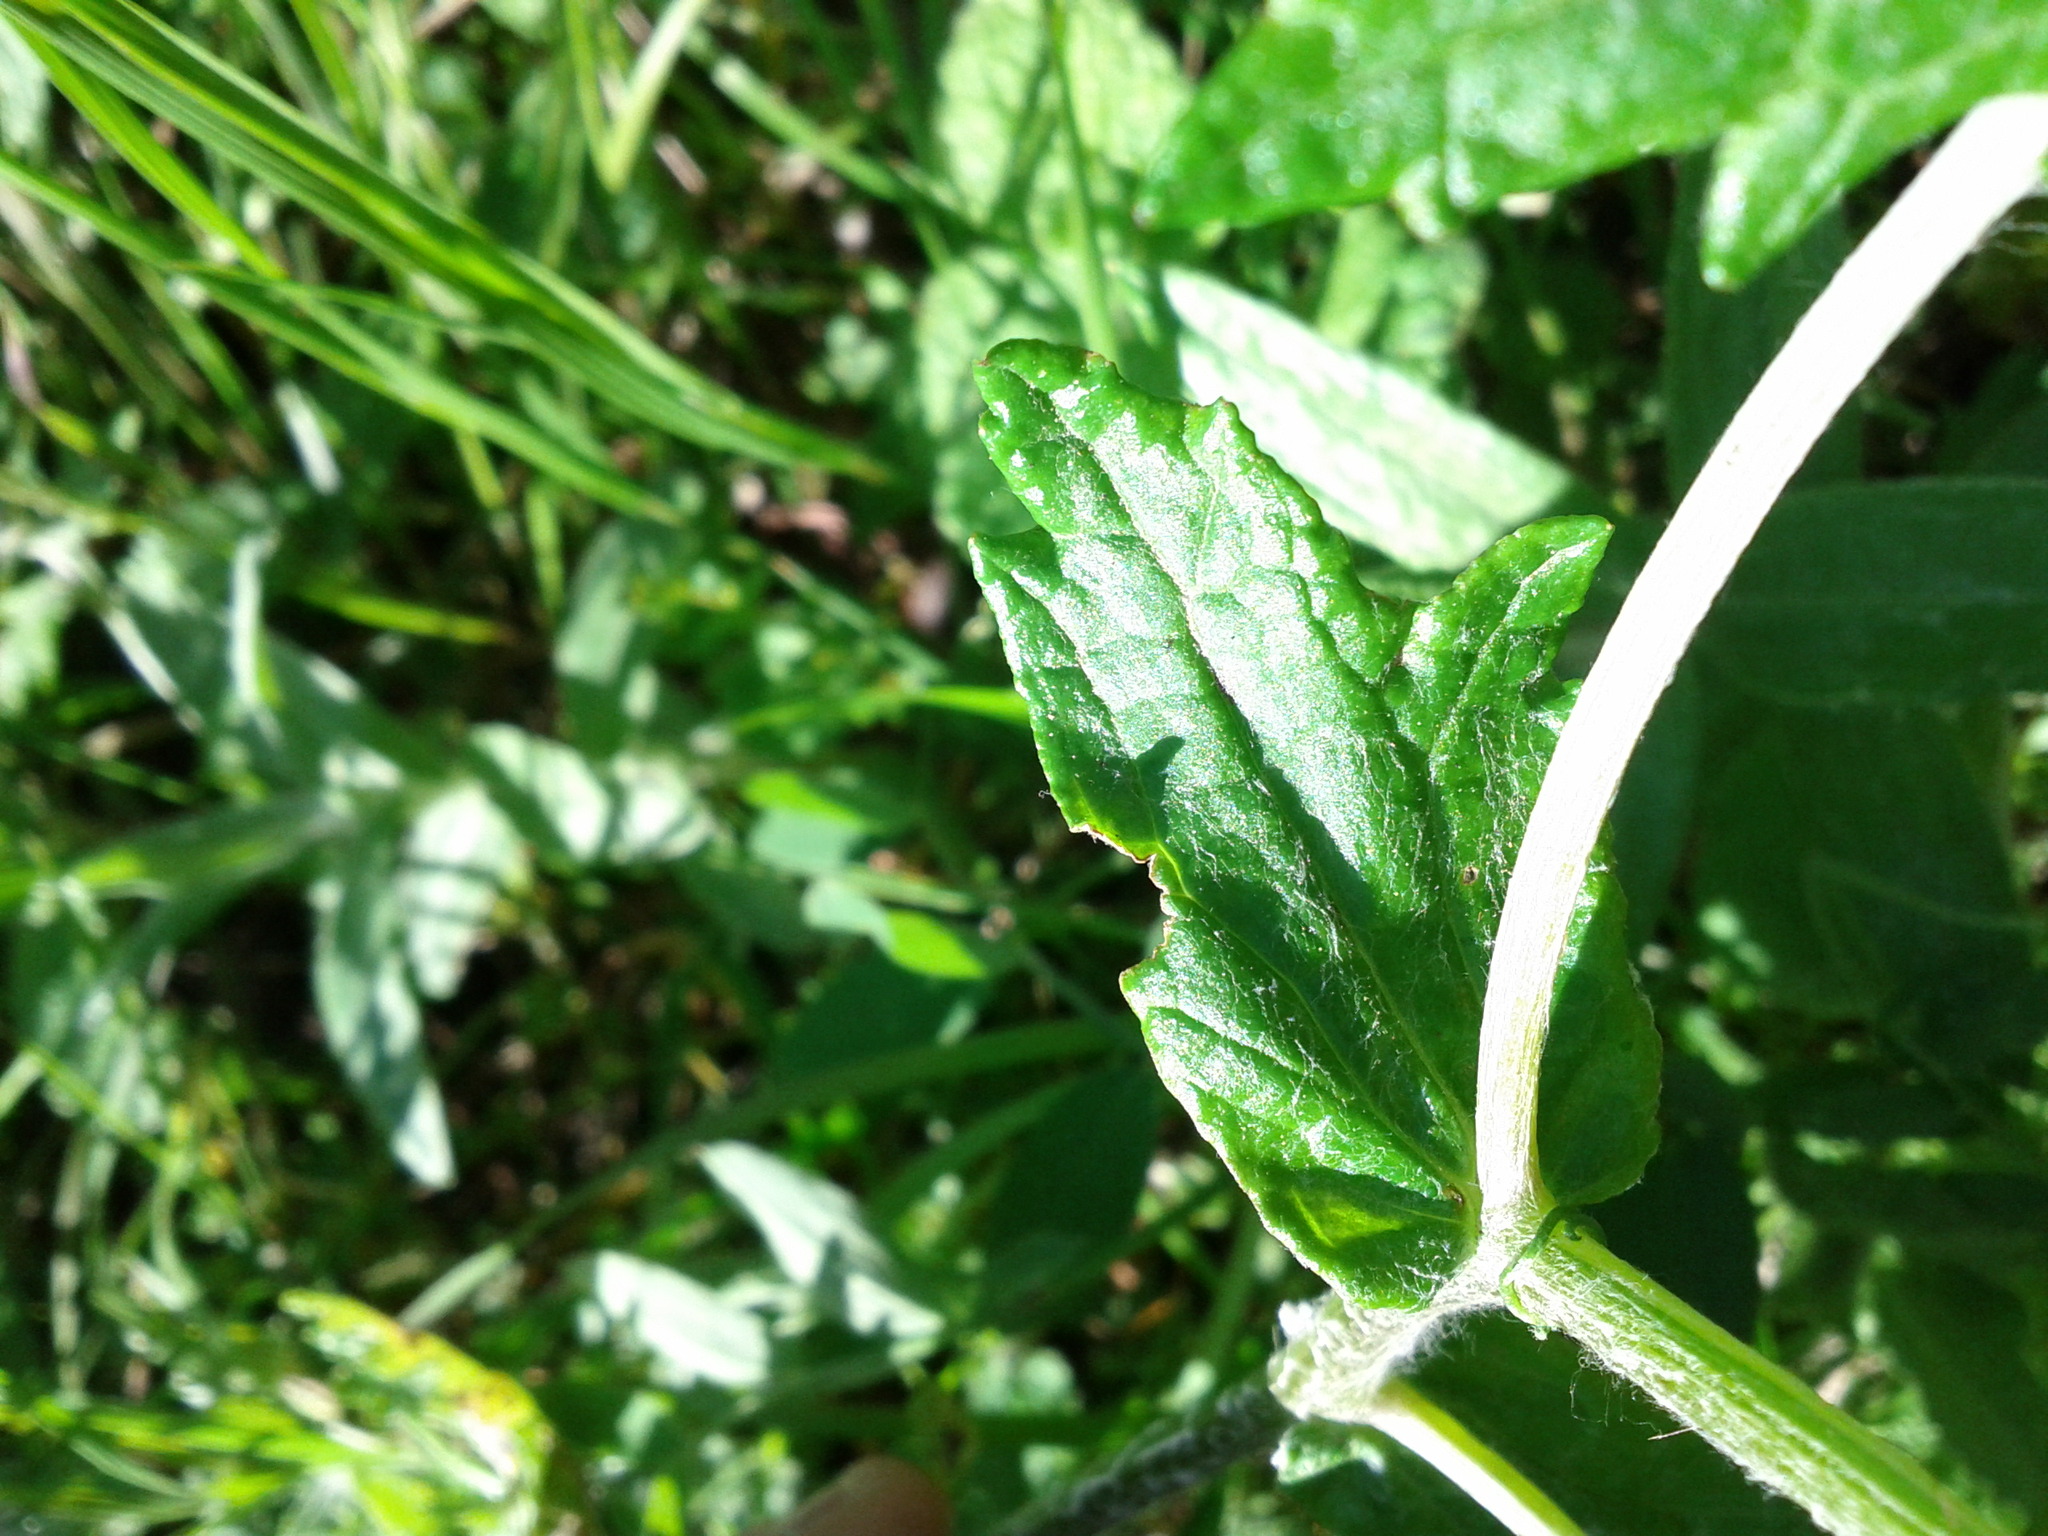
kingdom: Plantae
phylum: Tracheophyta
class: Magnoliopsida
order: Asterales
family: Asteraceae
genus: Eriophyllum
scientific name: Eriophyllum lanatum
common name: Common woolly-sunflower
